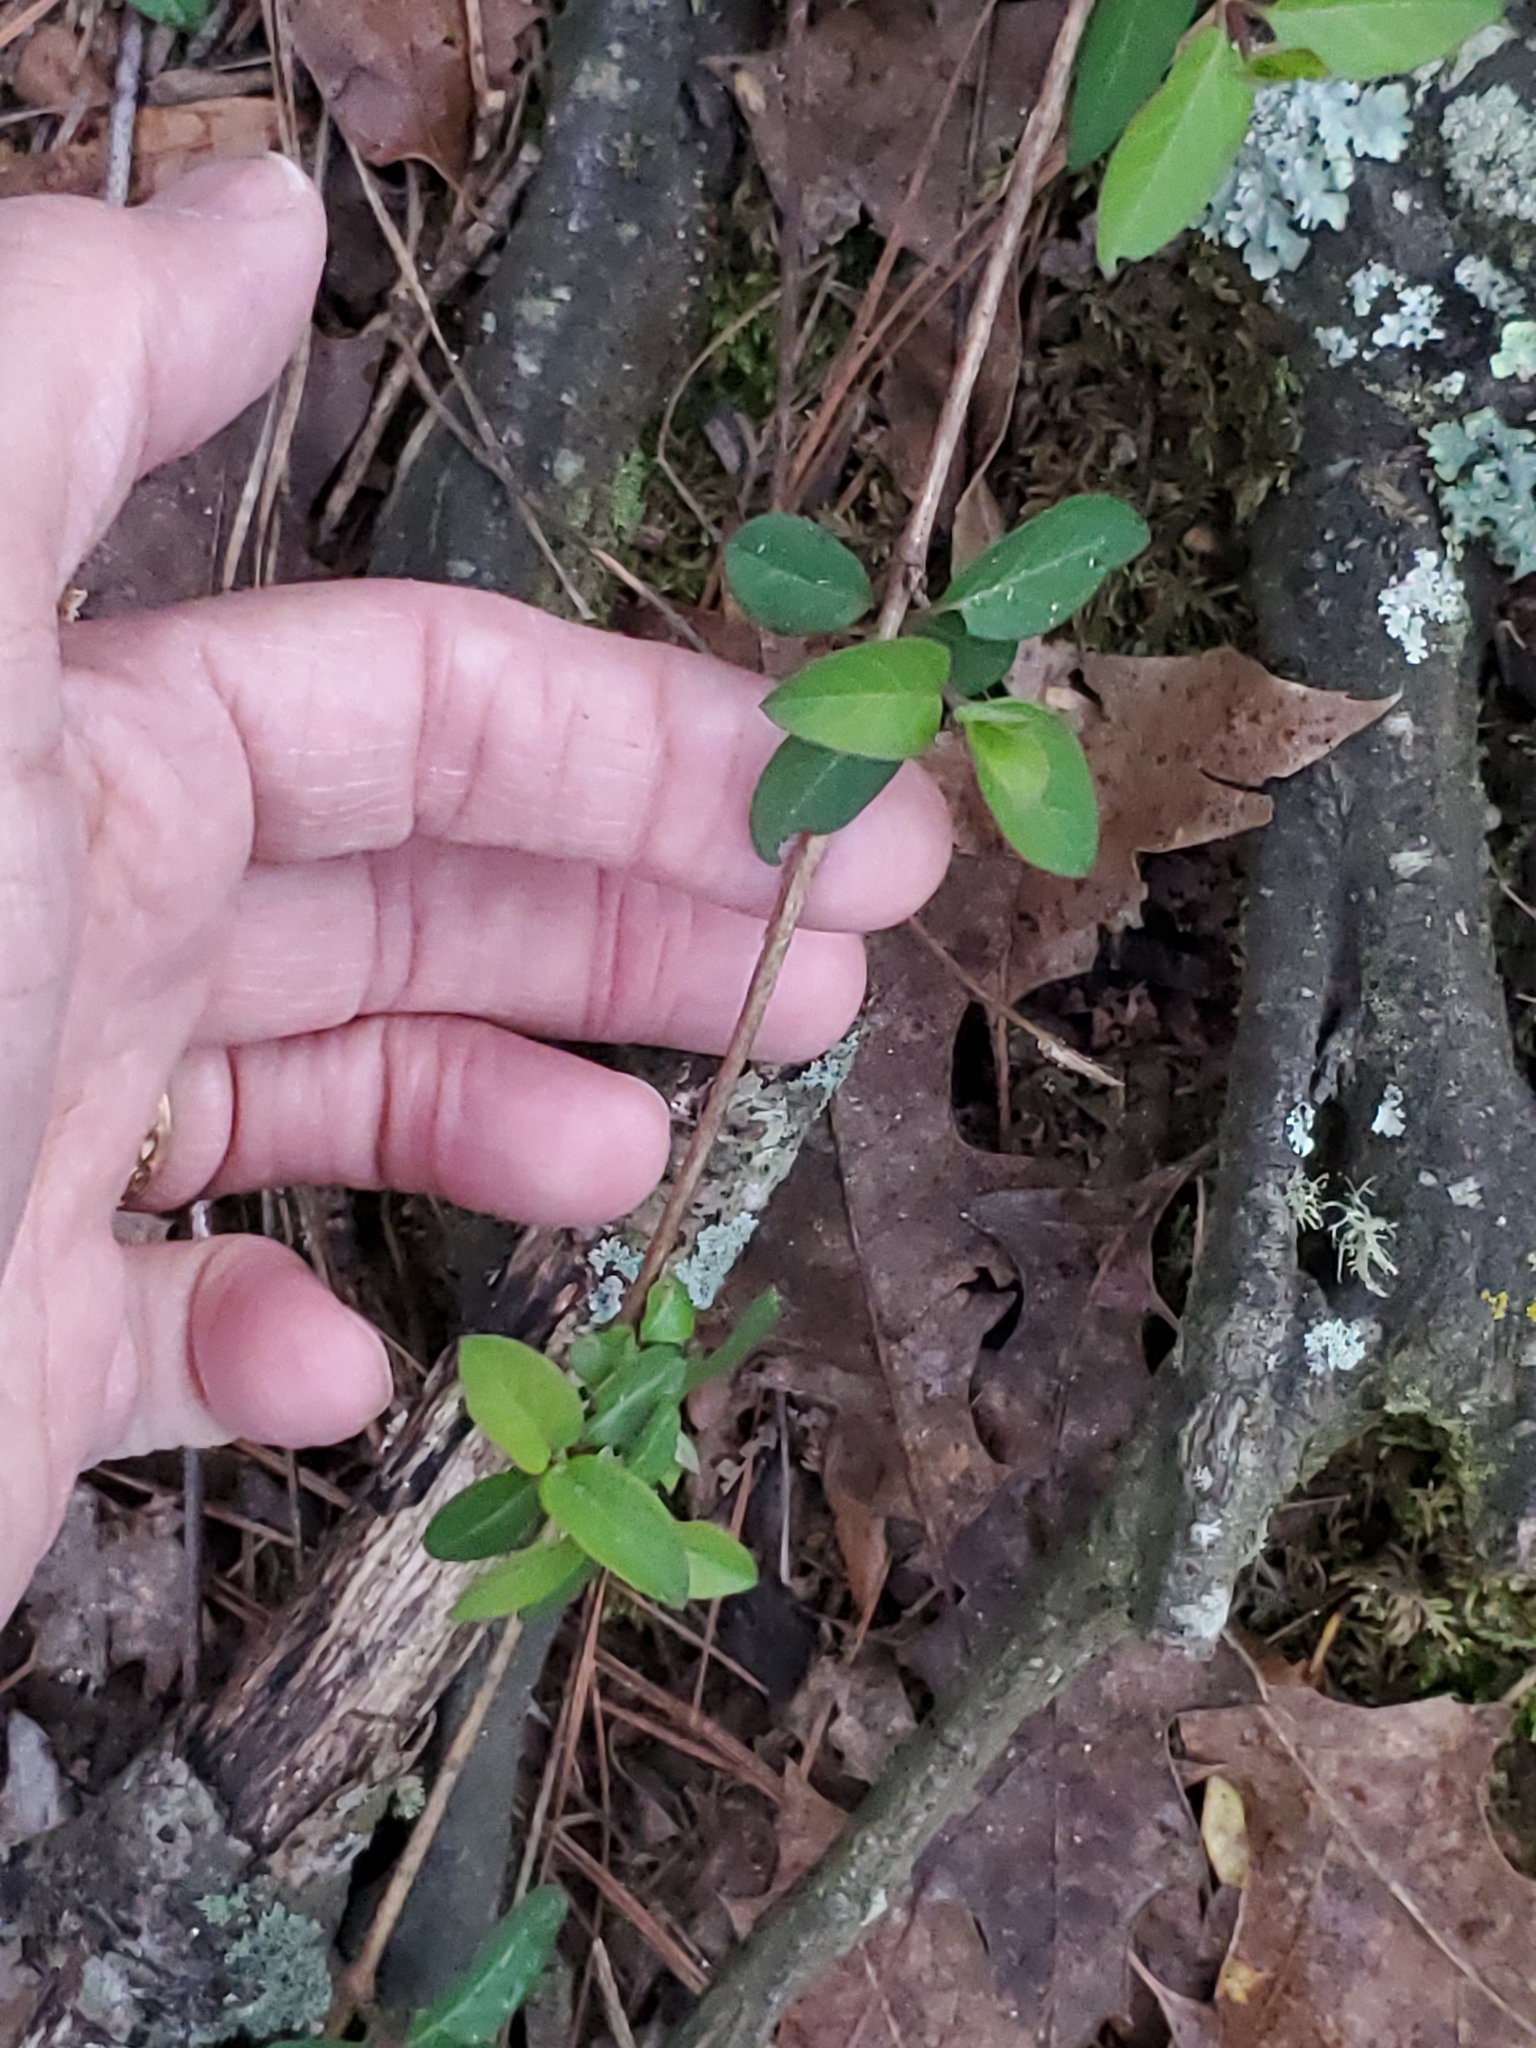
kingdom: Plantae
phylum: Tracheophyta
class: Magnoliopsida
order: Dipsacales
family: Caprifoliaceae
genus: Lonicera
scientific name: Lonicera japonica
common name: Japanese honeysuckle
